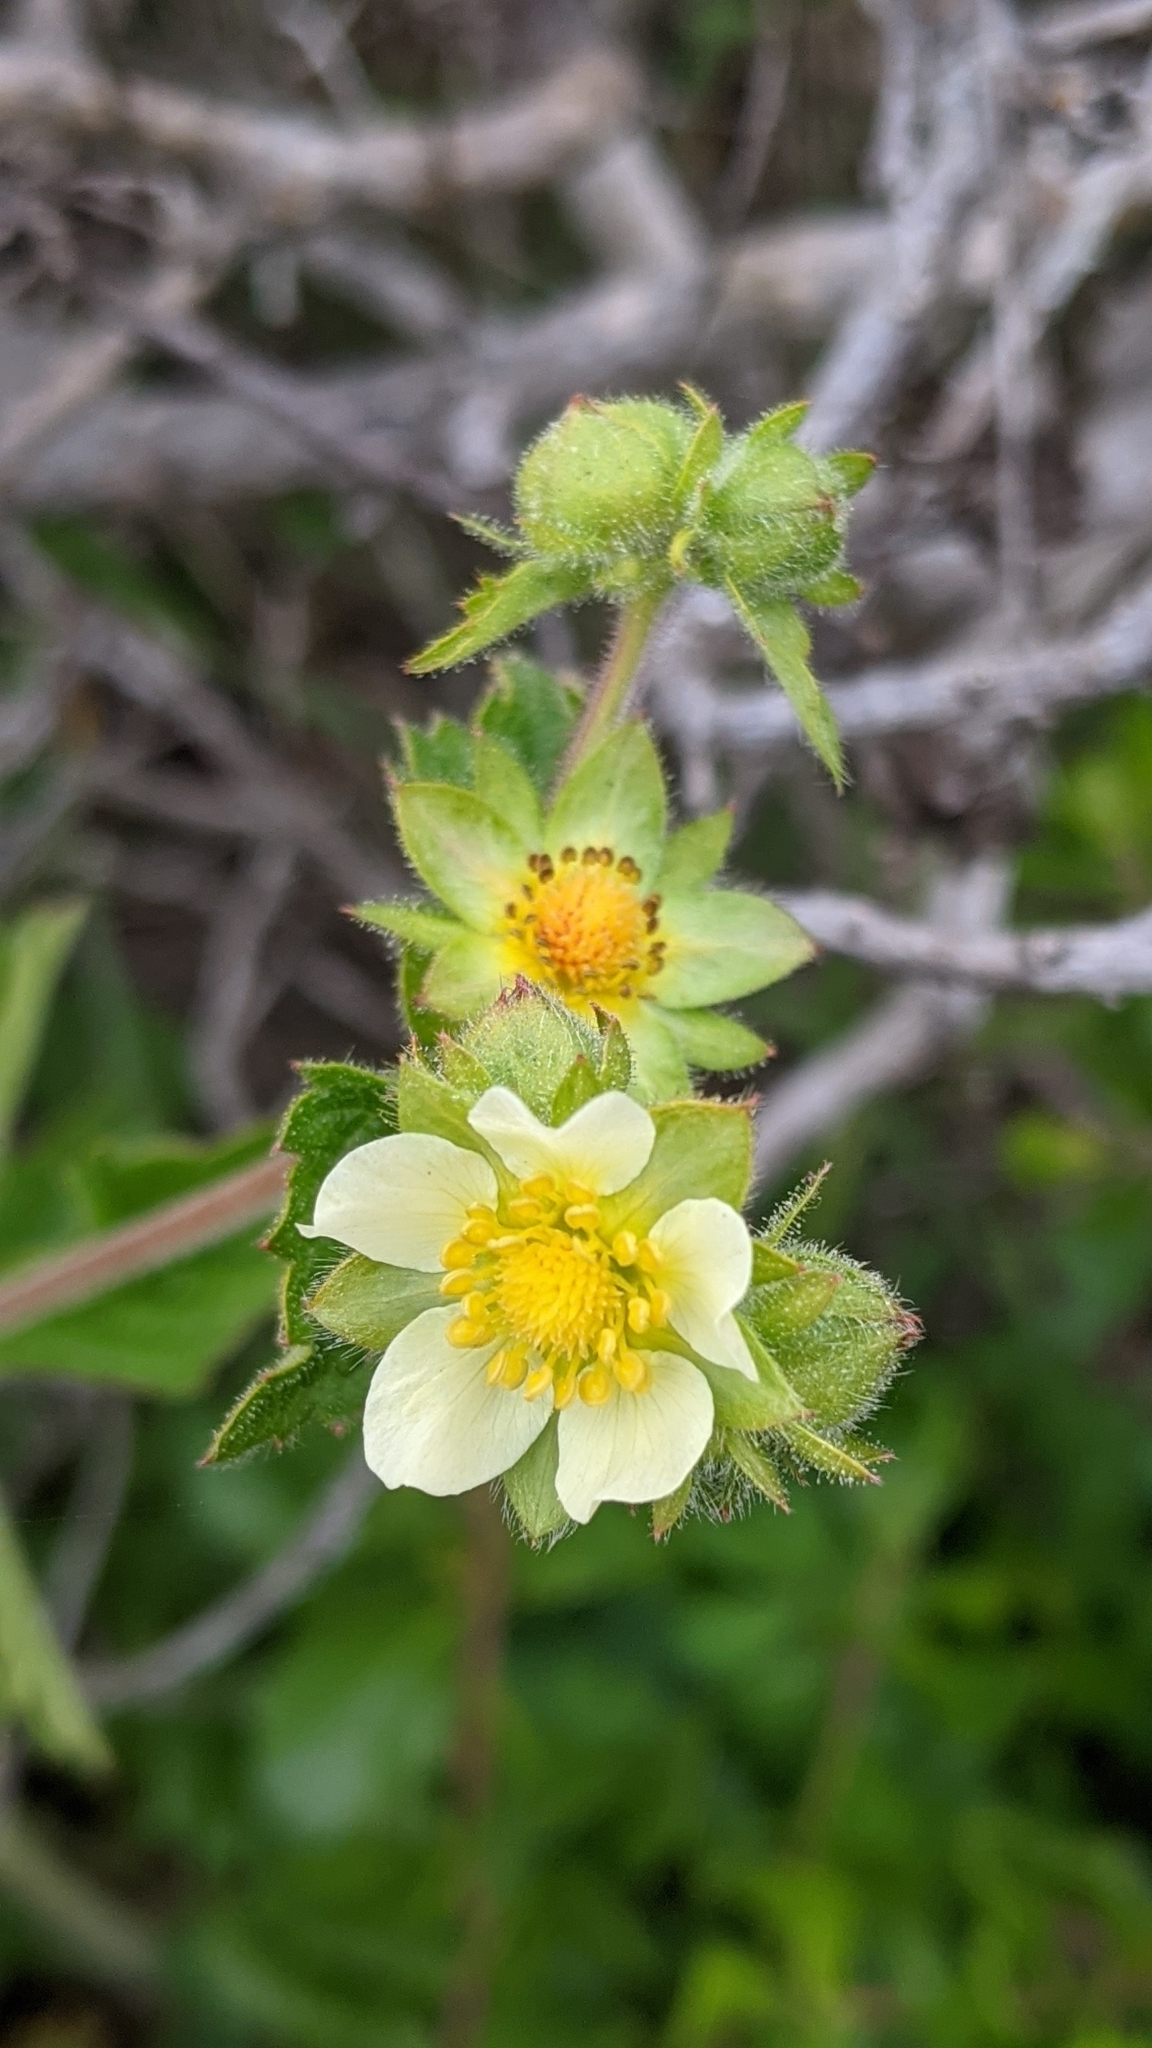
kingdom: Plantae
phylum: Tracheophyta
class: Magnoliopsida
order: Rosales
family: Rosaceae
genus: Drymocallis
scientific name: Drymocallis glandulosa
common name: Sticky cinquefoil
